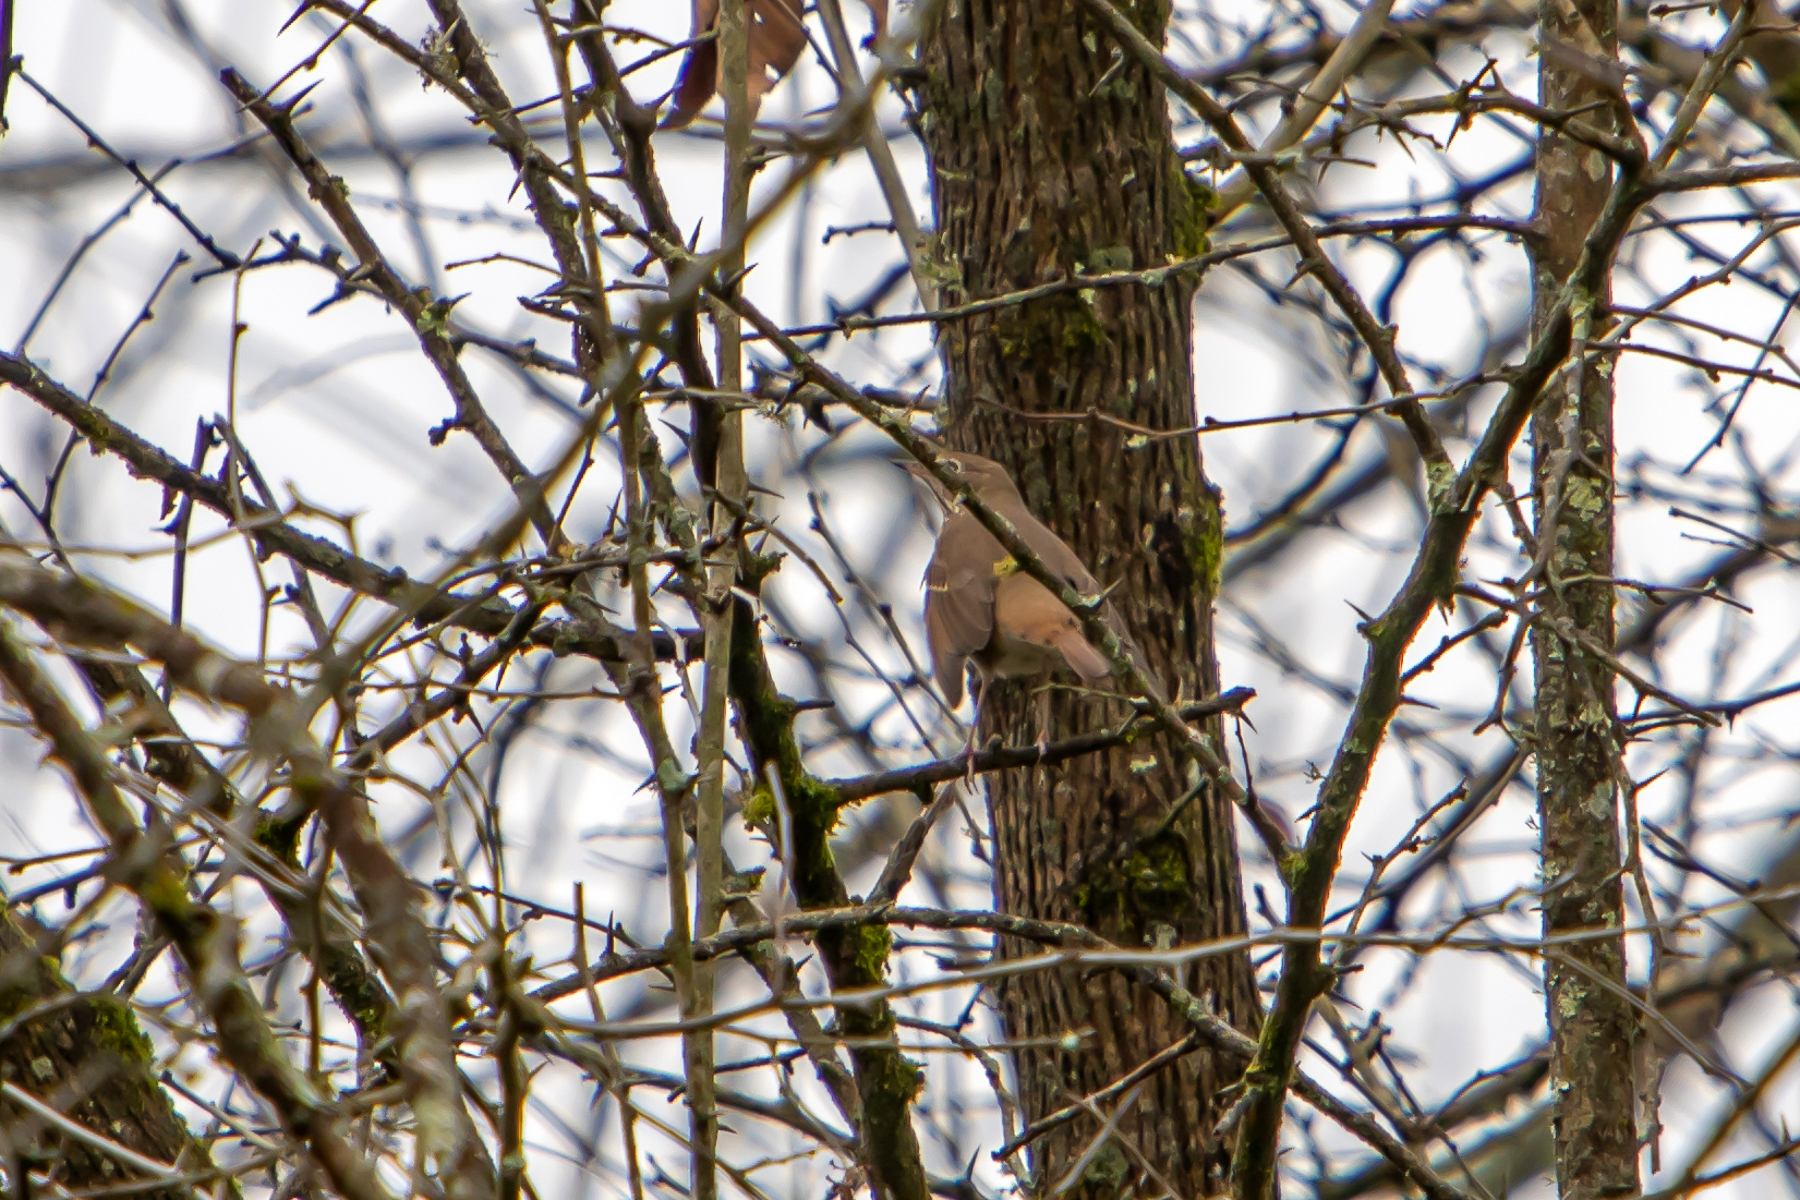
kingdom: Animalia
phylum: Chordata
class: Aves
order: Passeriformes
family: Turdidae
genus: Catharus
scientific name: Catharus guttatus
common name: Hermit thrush
